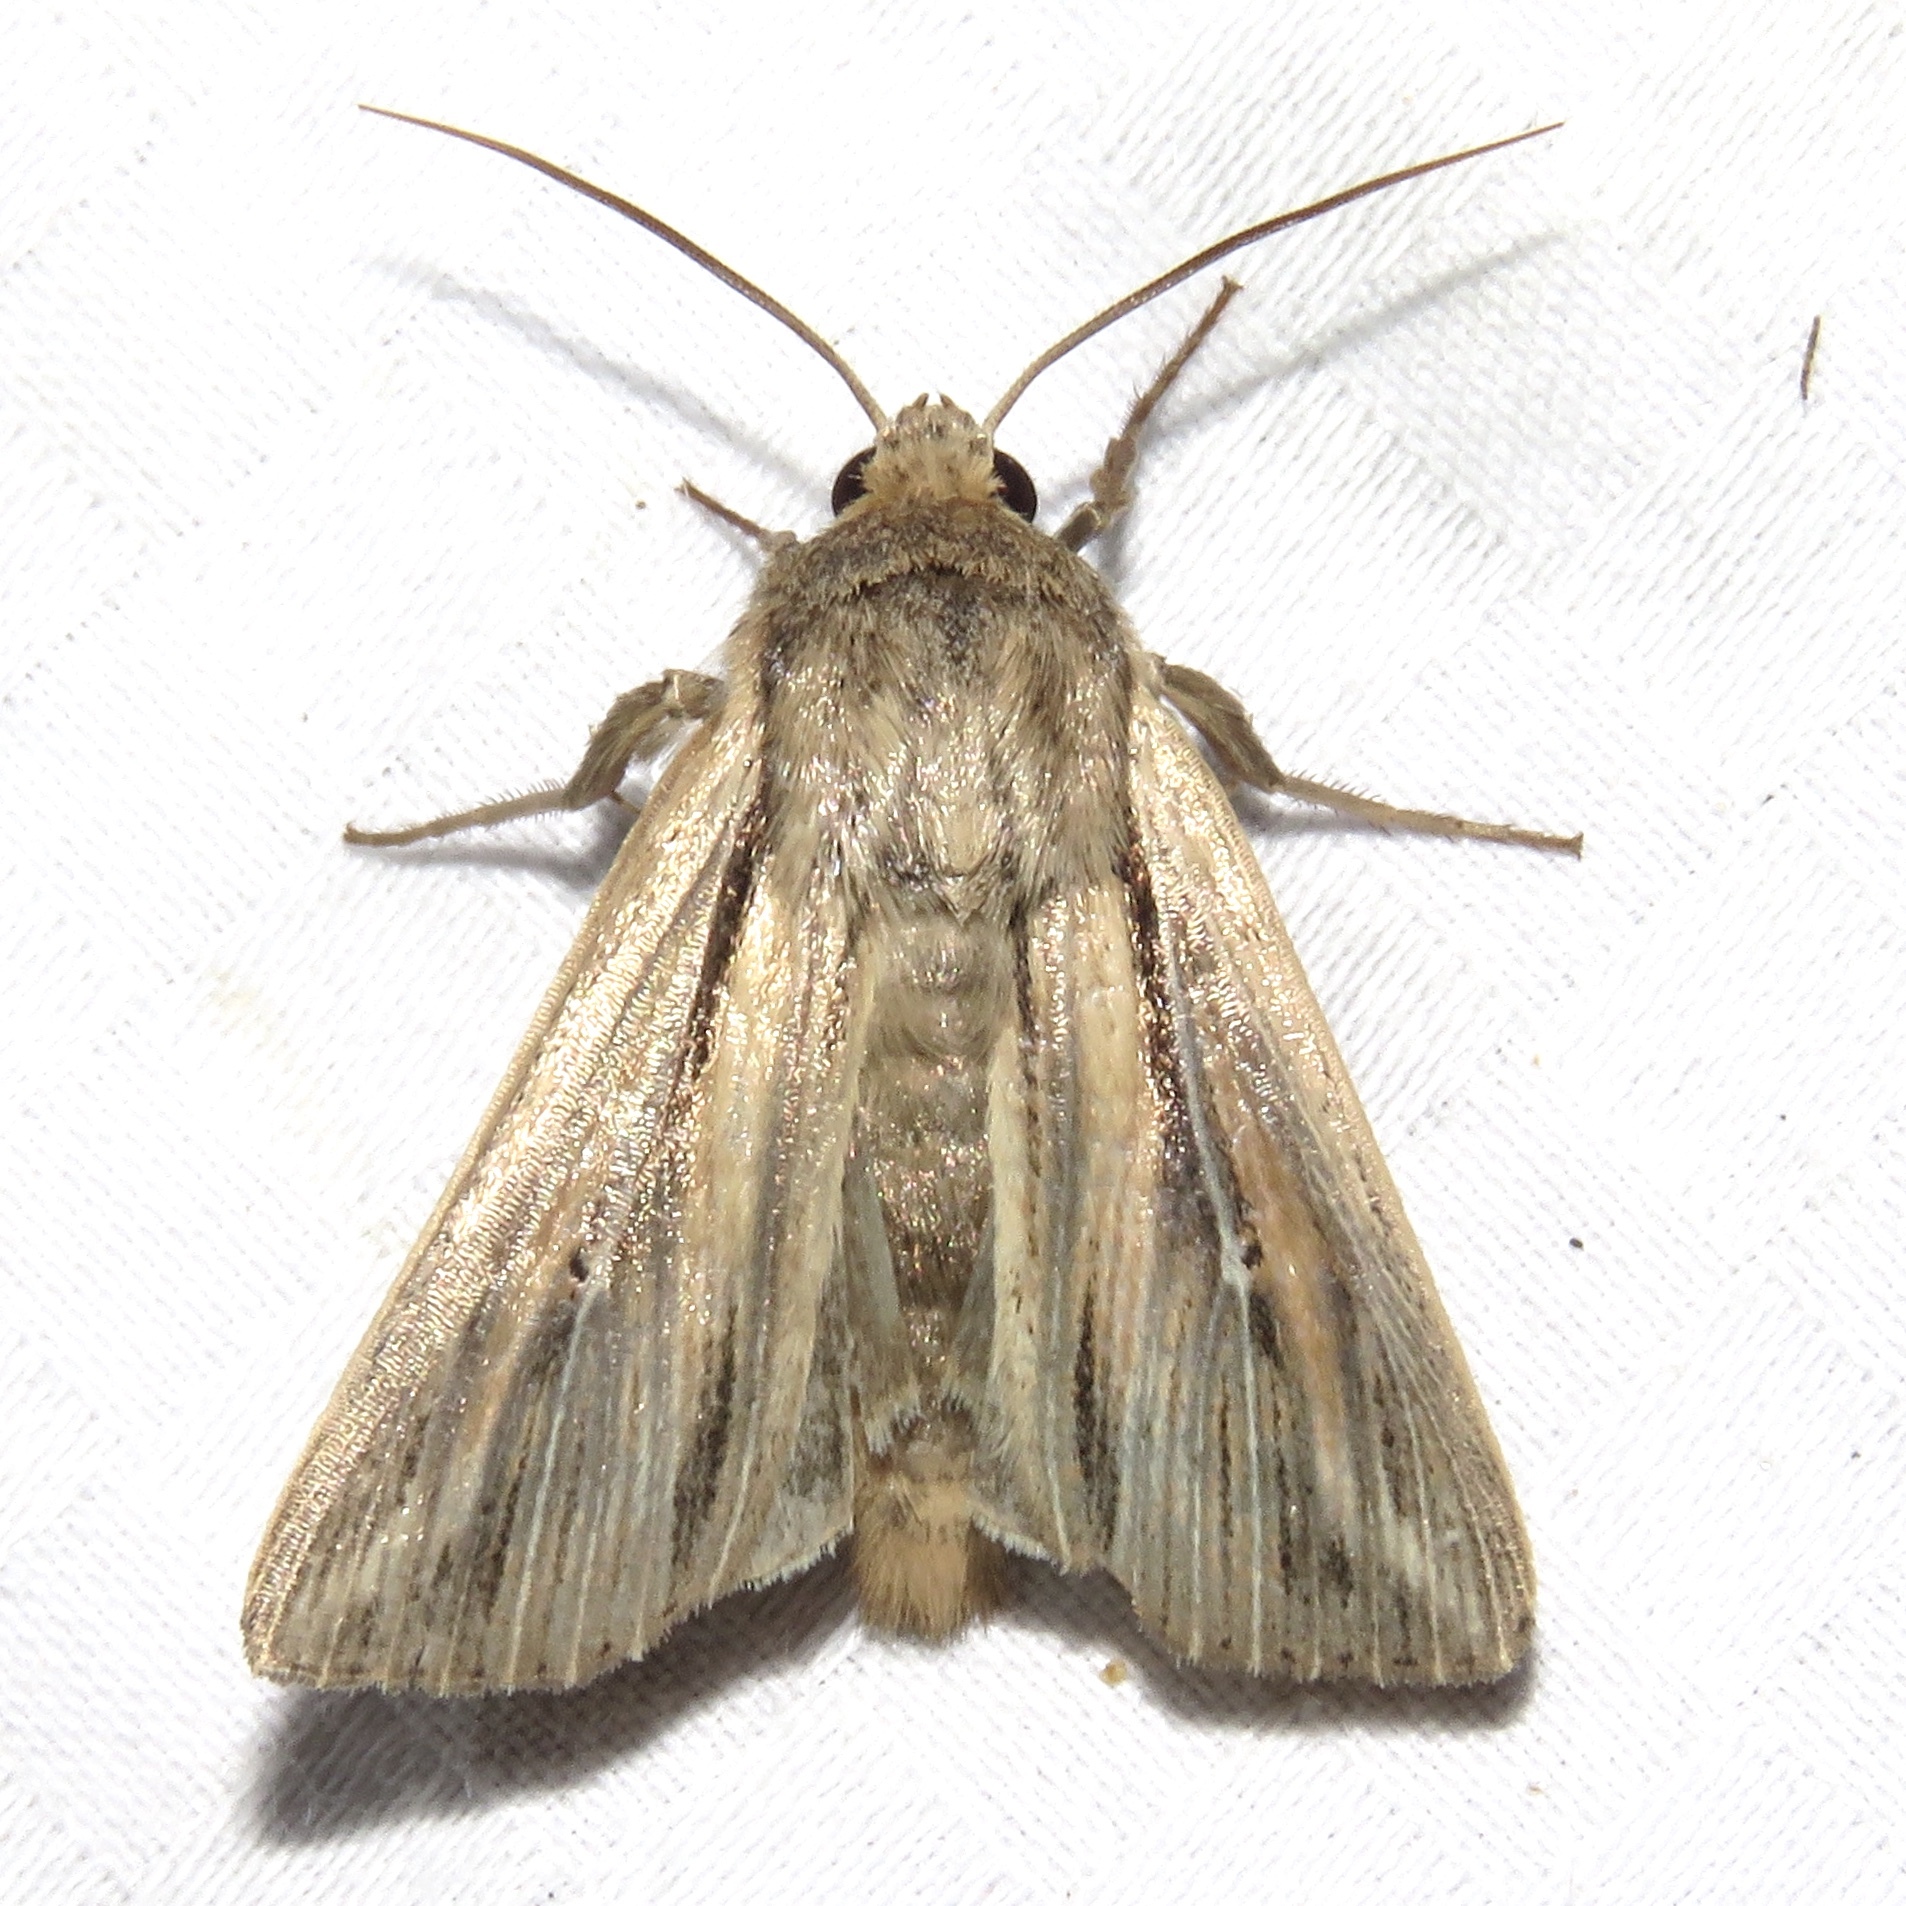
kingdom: Animalia
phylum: Arthropoda
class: Insecta
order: Lepidoptera
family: Noctuidae
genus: Leucania
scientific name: Leucania commoides
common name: Two-lined wainscot
